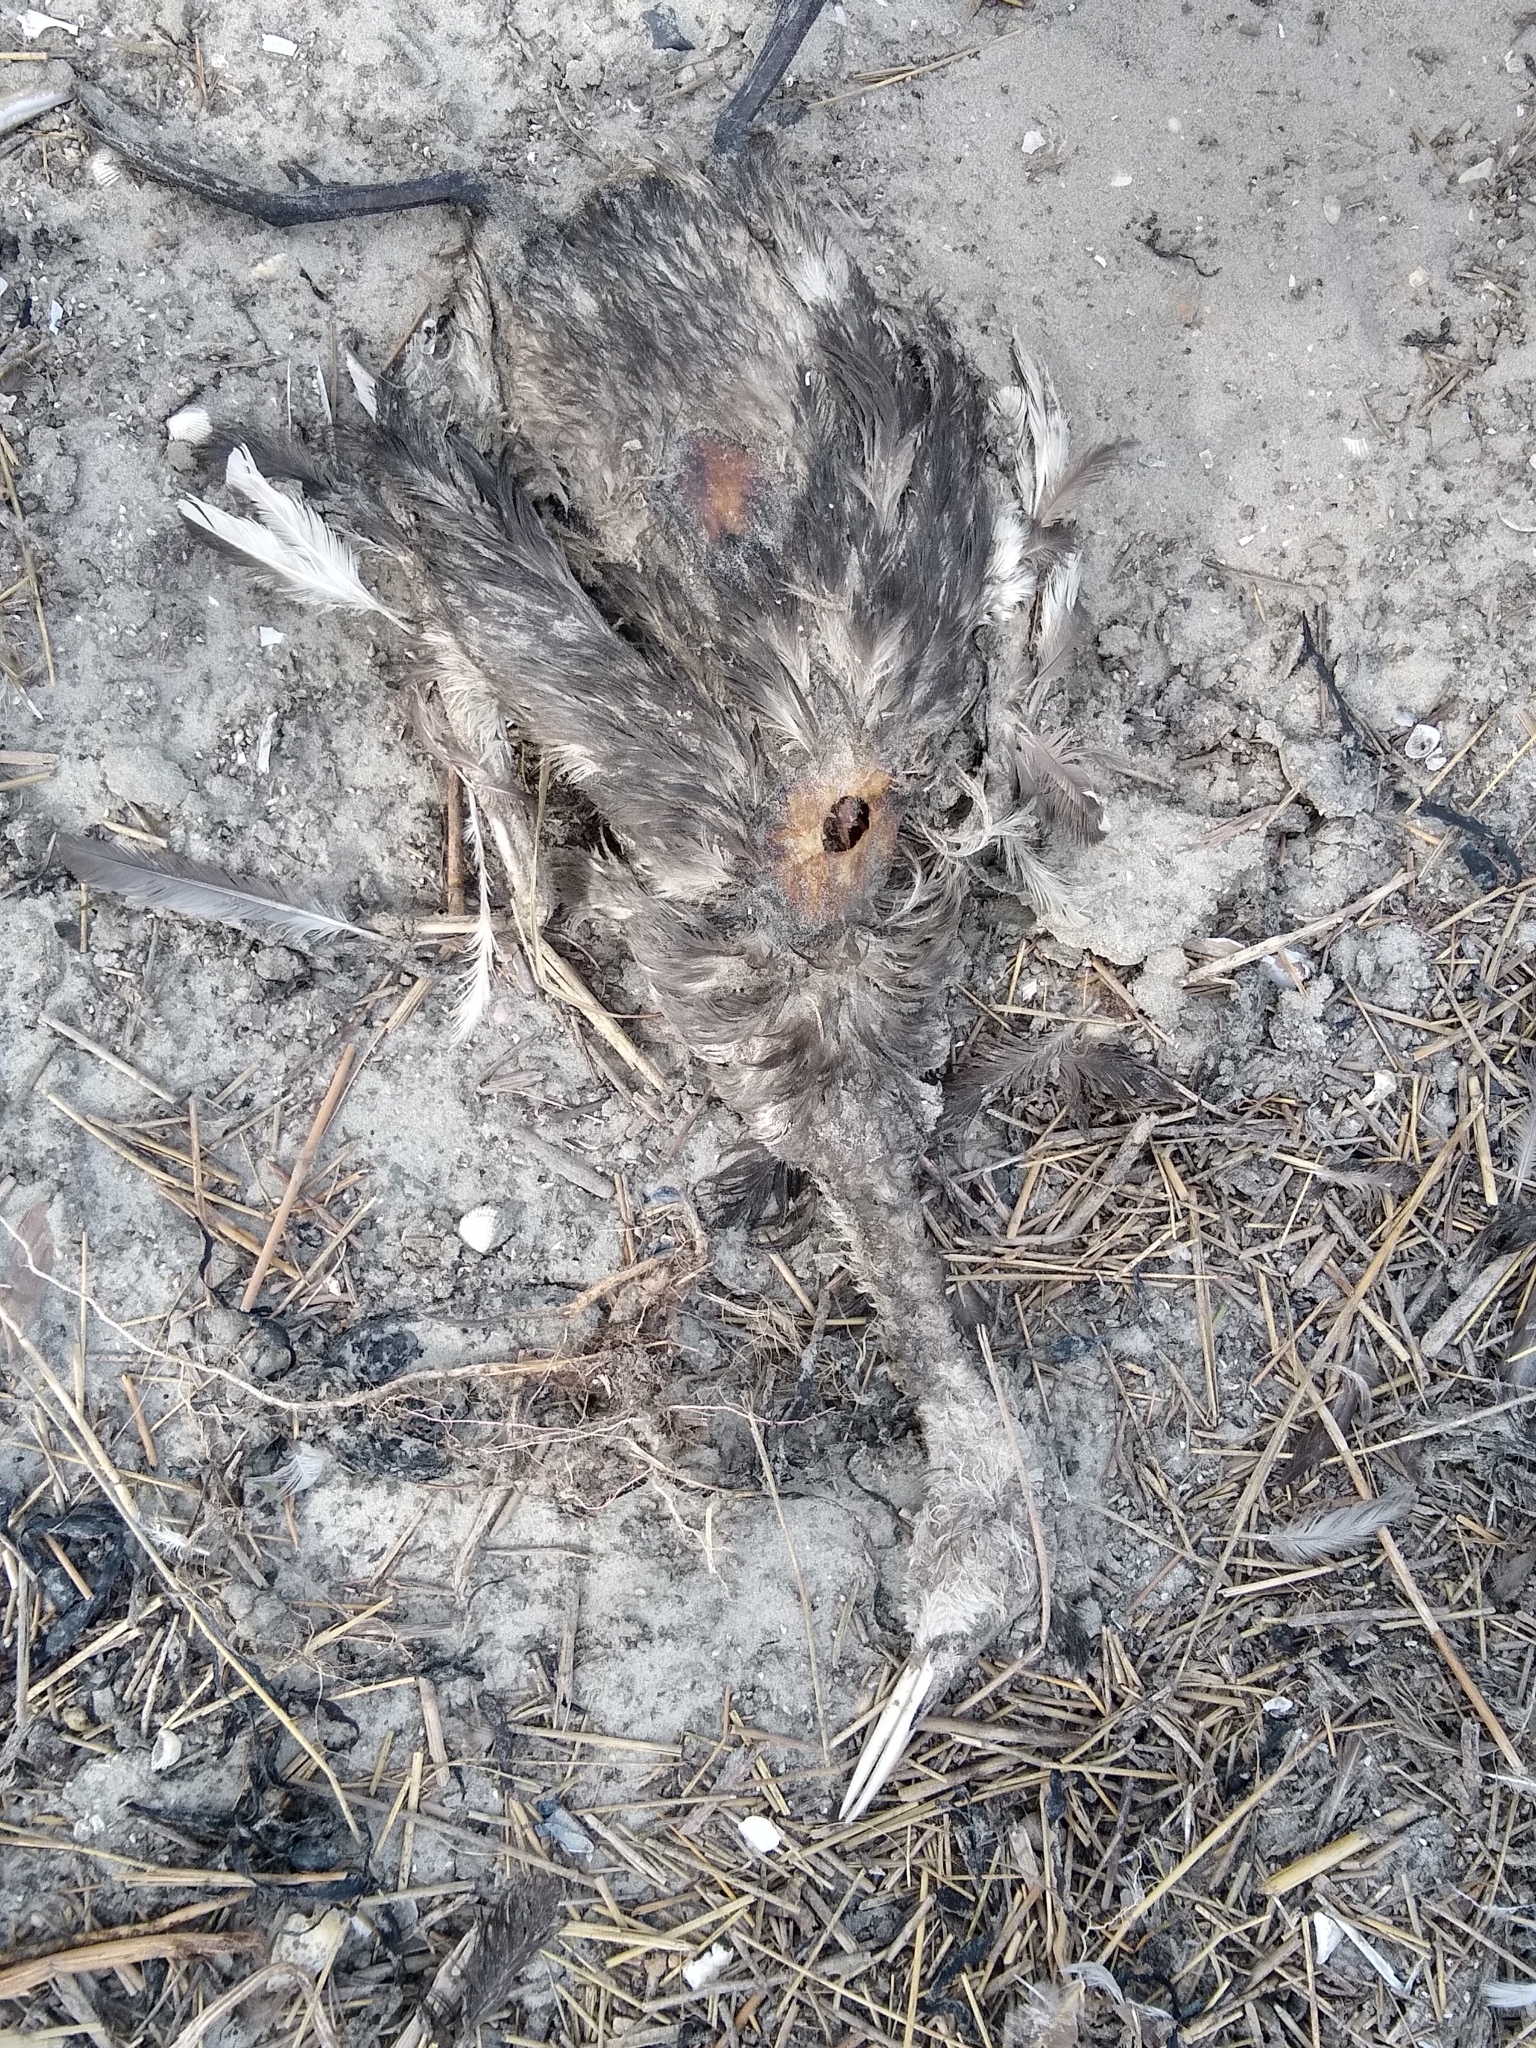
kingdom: Animalia
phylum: Chordata
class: Aves
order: Podicipediformes
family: Podicipedidae
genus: Podiceps
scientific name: Podiceps cristatus
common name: Great crested grebe
